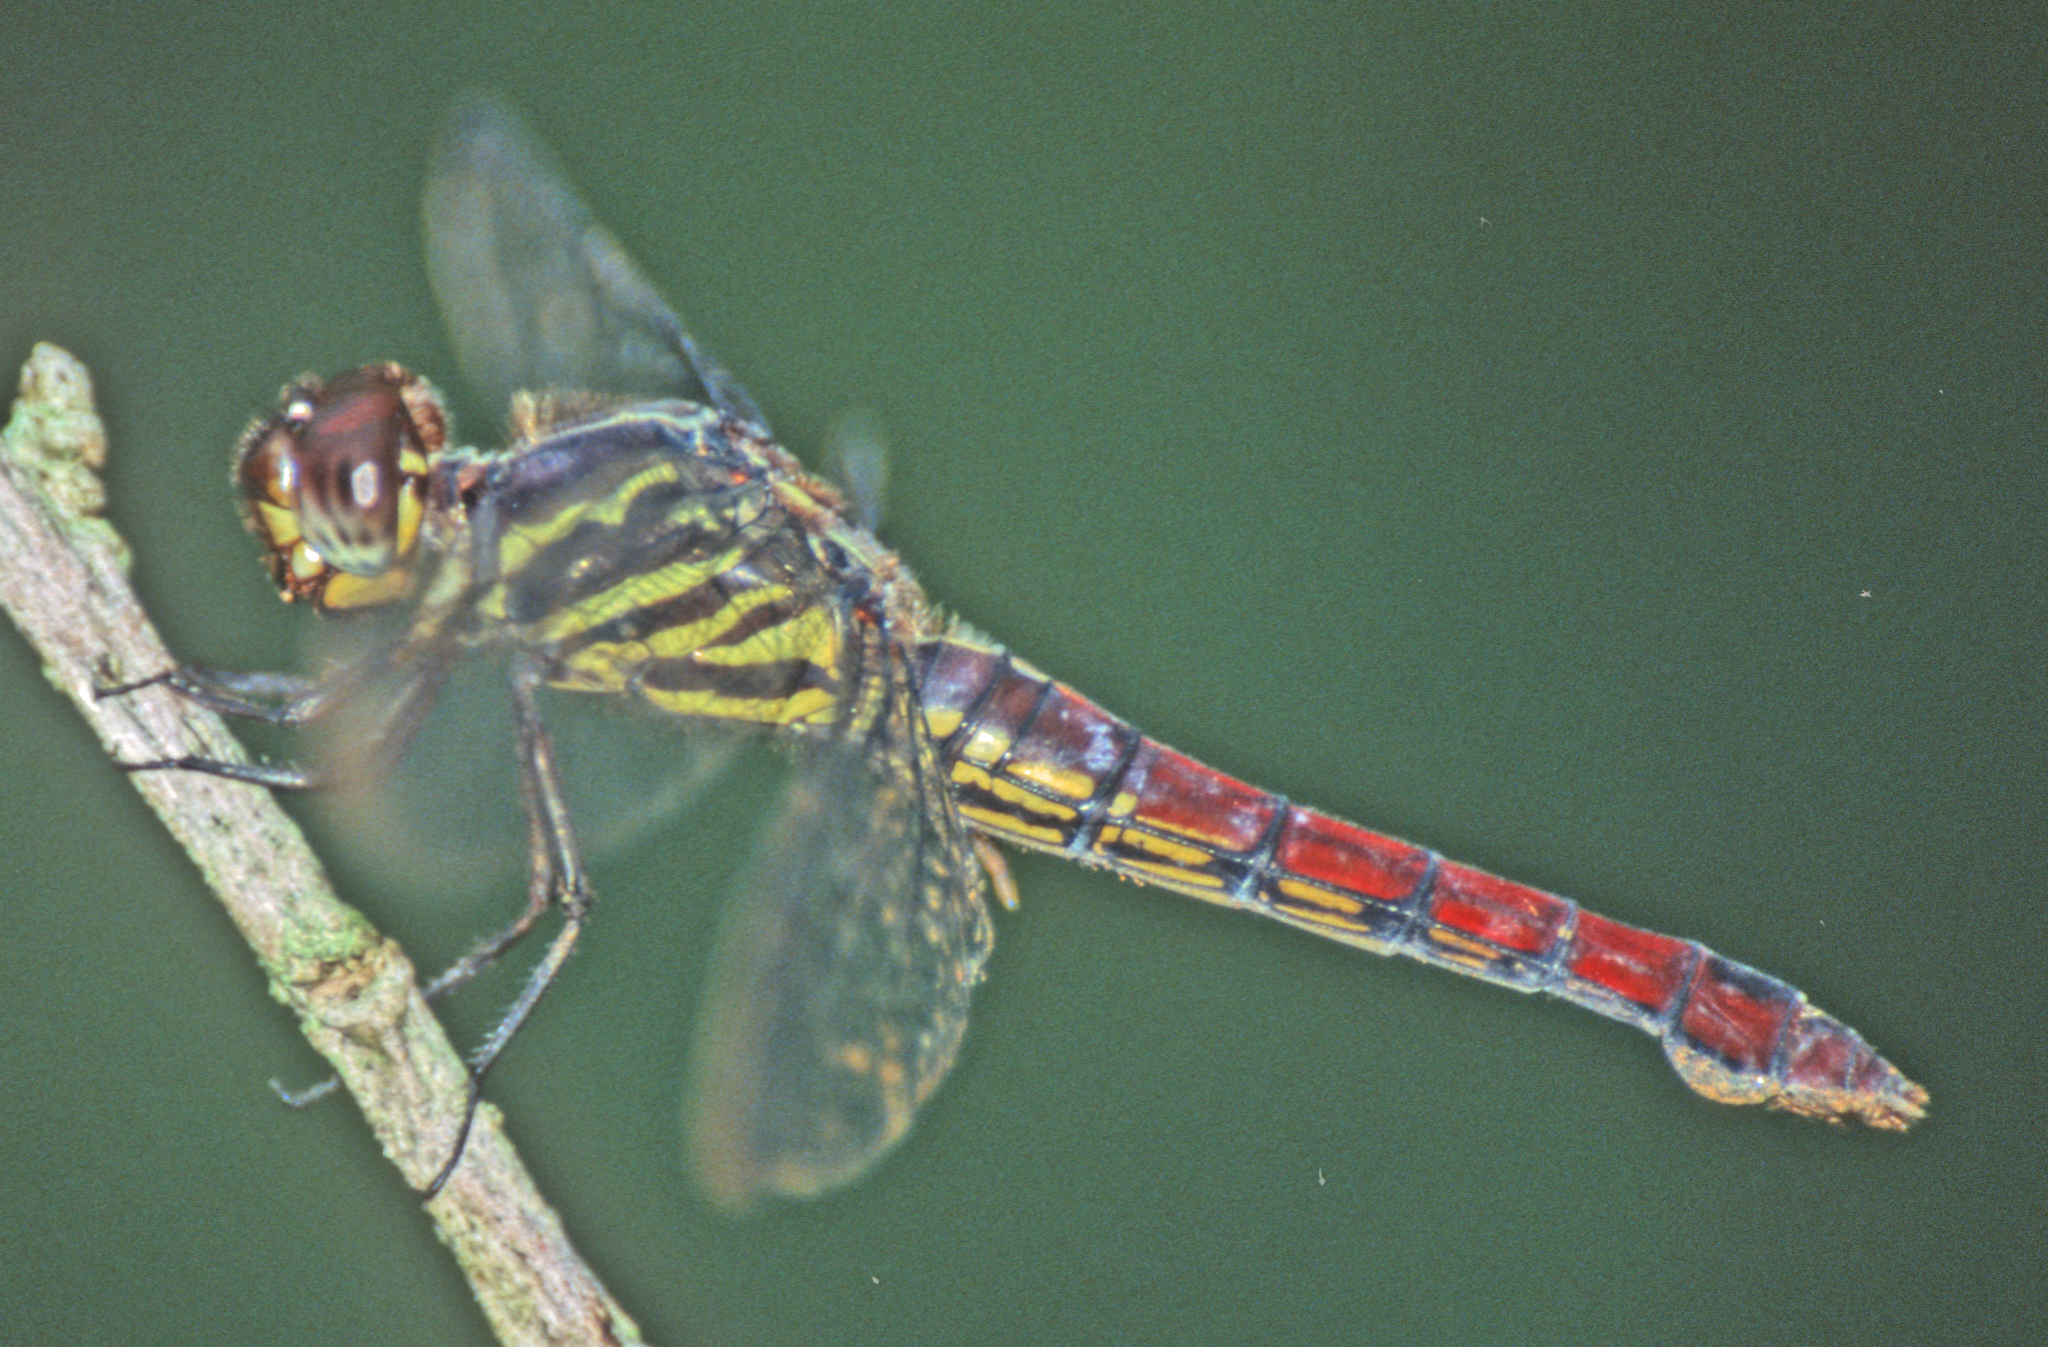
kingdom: Animalia
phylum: Arthropoda
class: Insecta
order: Odonata
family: Libellulidae
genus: Orthemis
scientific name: Orthemis biolleyi
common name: Yellow-lined skimmer
